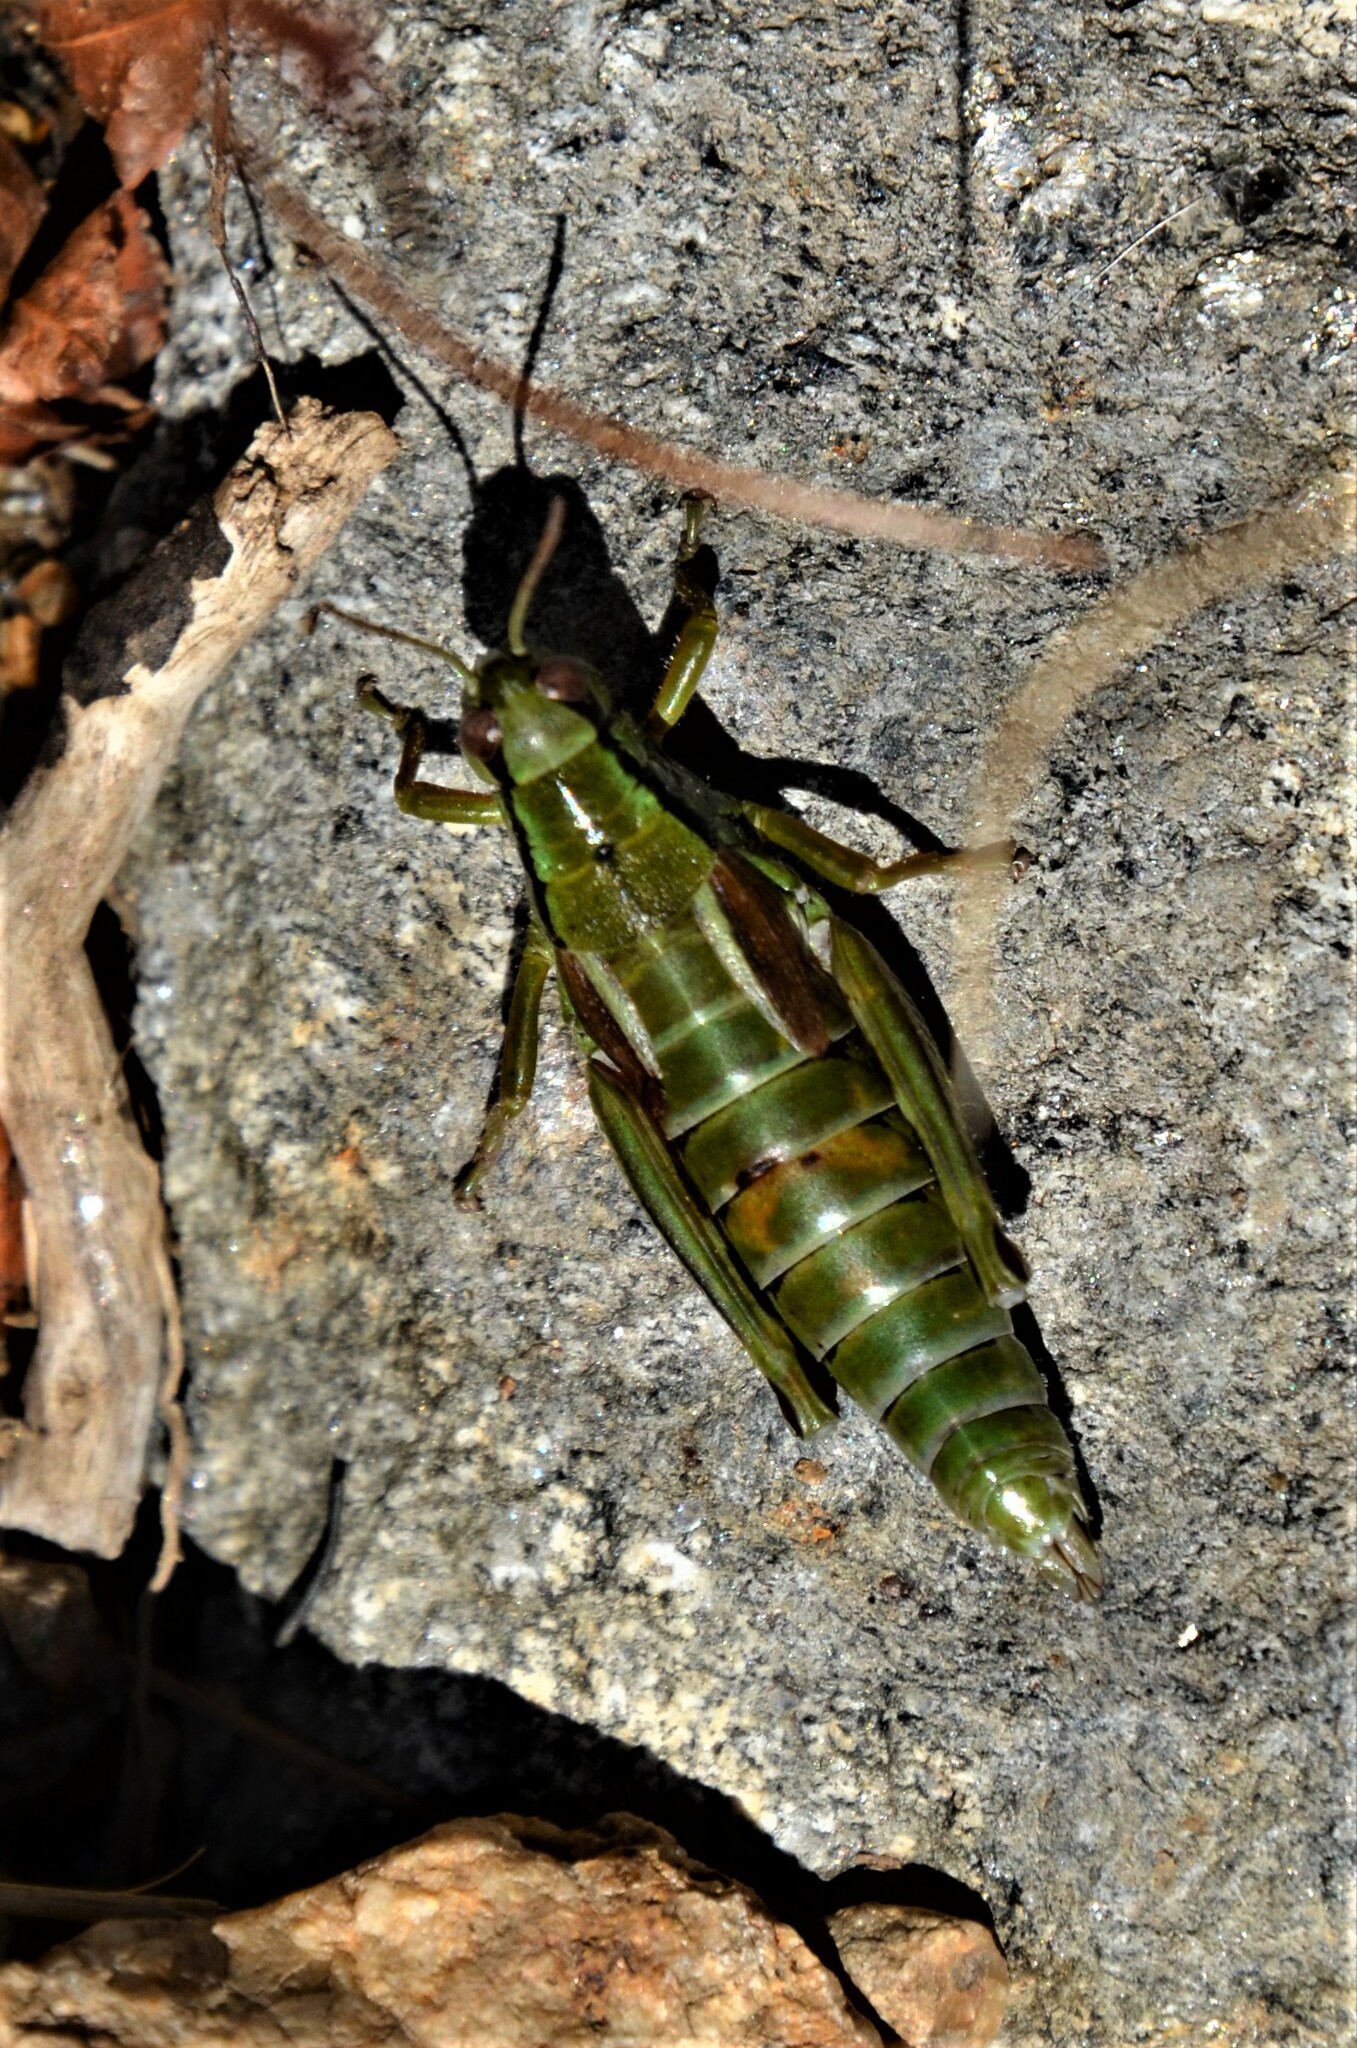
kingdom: Animalia
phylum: Arthropoda
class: Insecta
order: Orthoptera
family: Acrididae
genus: Miramella
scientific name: Miramella carinthiaca
